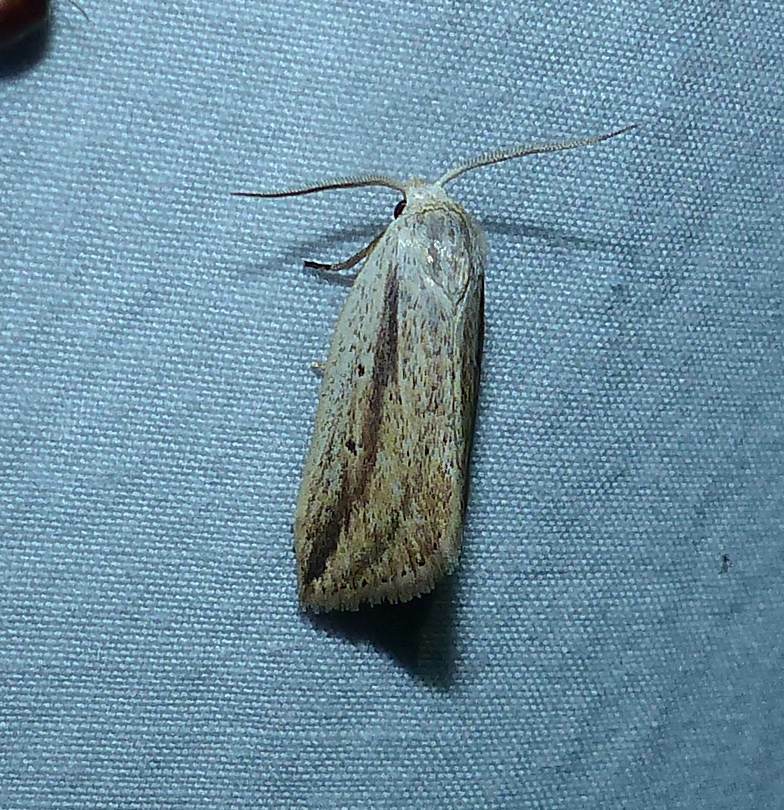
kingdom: Animalia
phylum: Arthropoda
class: Insecta
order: Lepidoptera
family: Noctuidae
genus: Amolita
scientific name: Amolita fessa
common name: Feeble grass moth
